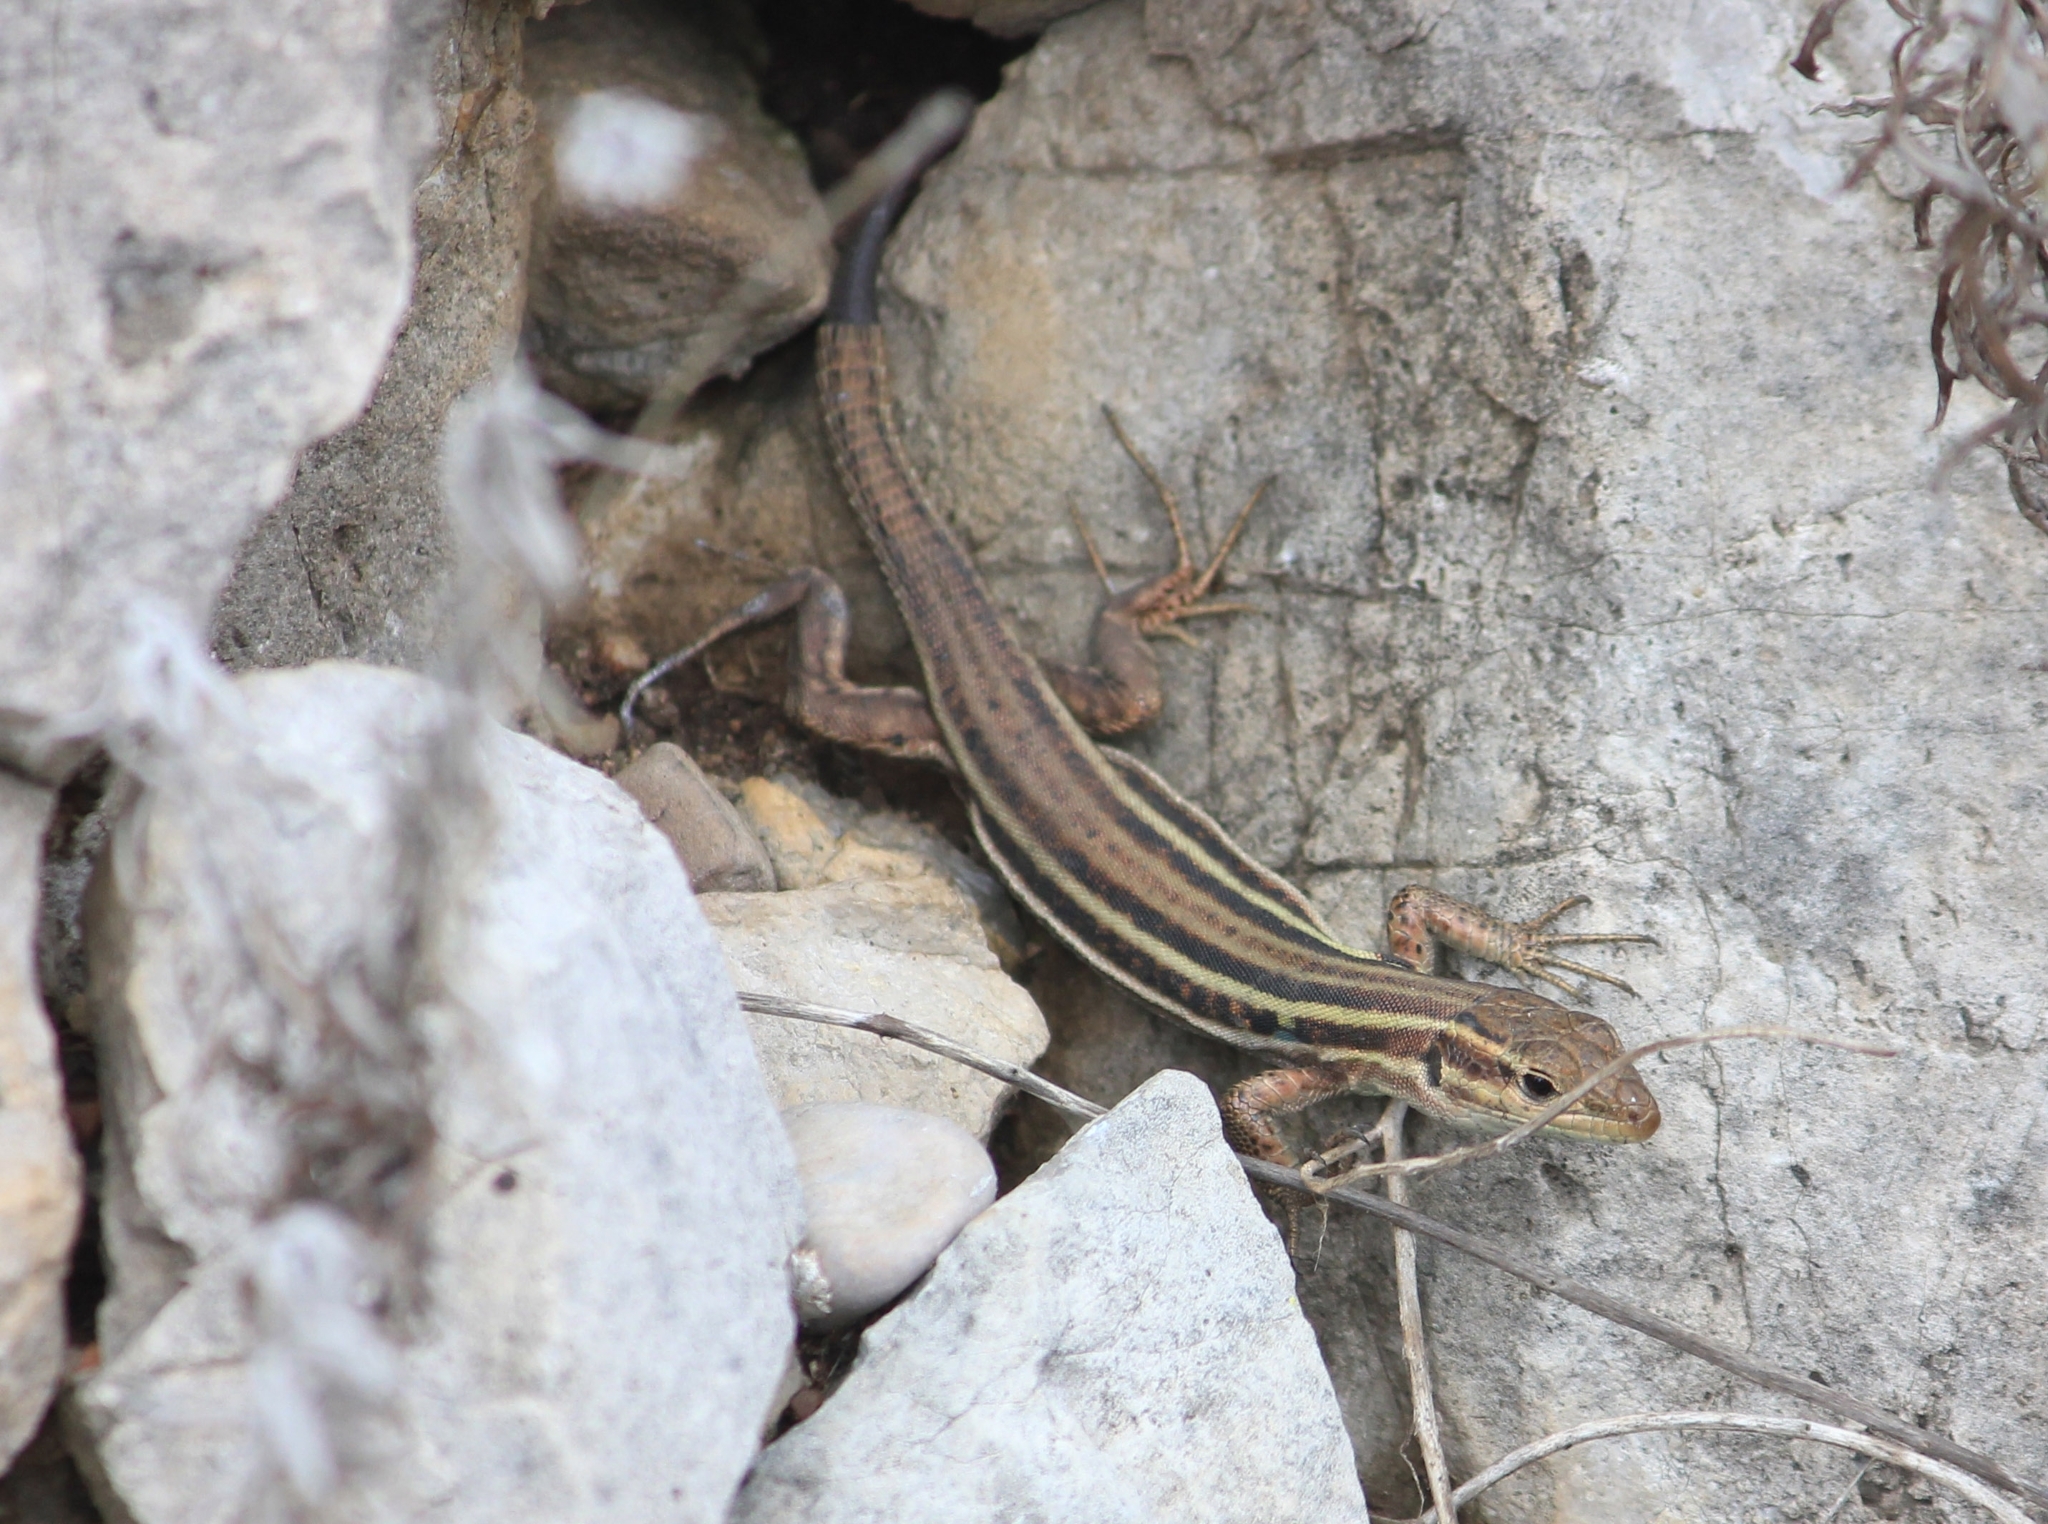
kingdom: Animalia
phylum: Chordata
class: Squamata
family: Lacertidae
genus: Podarcis
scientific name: Podarcis peloponnesiacus
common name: Peloponnese wall lizard
